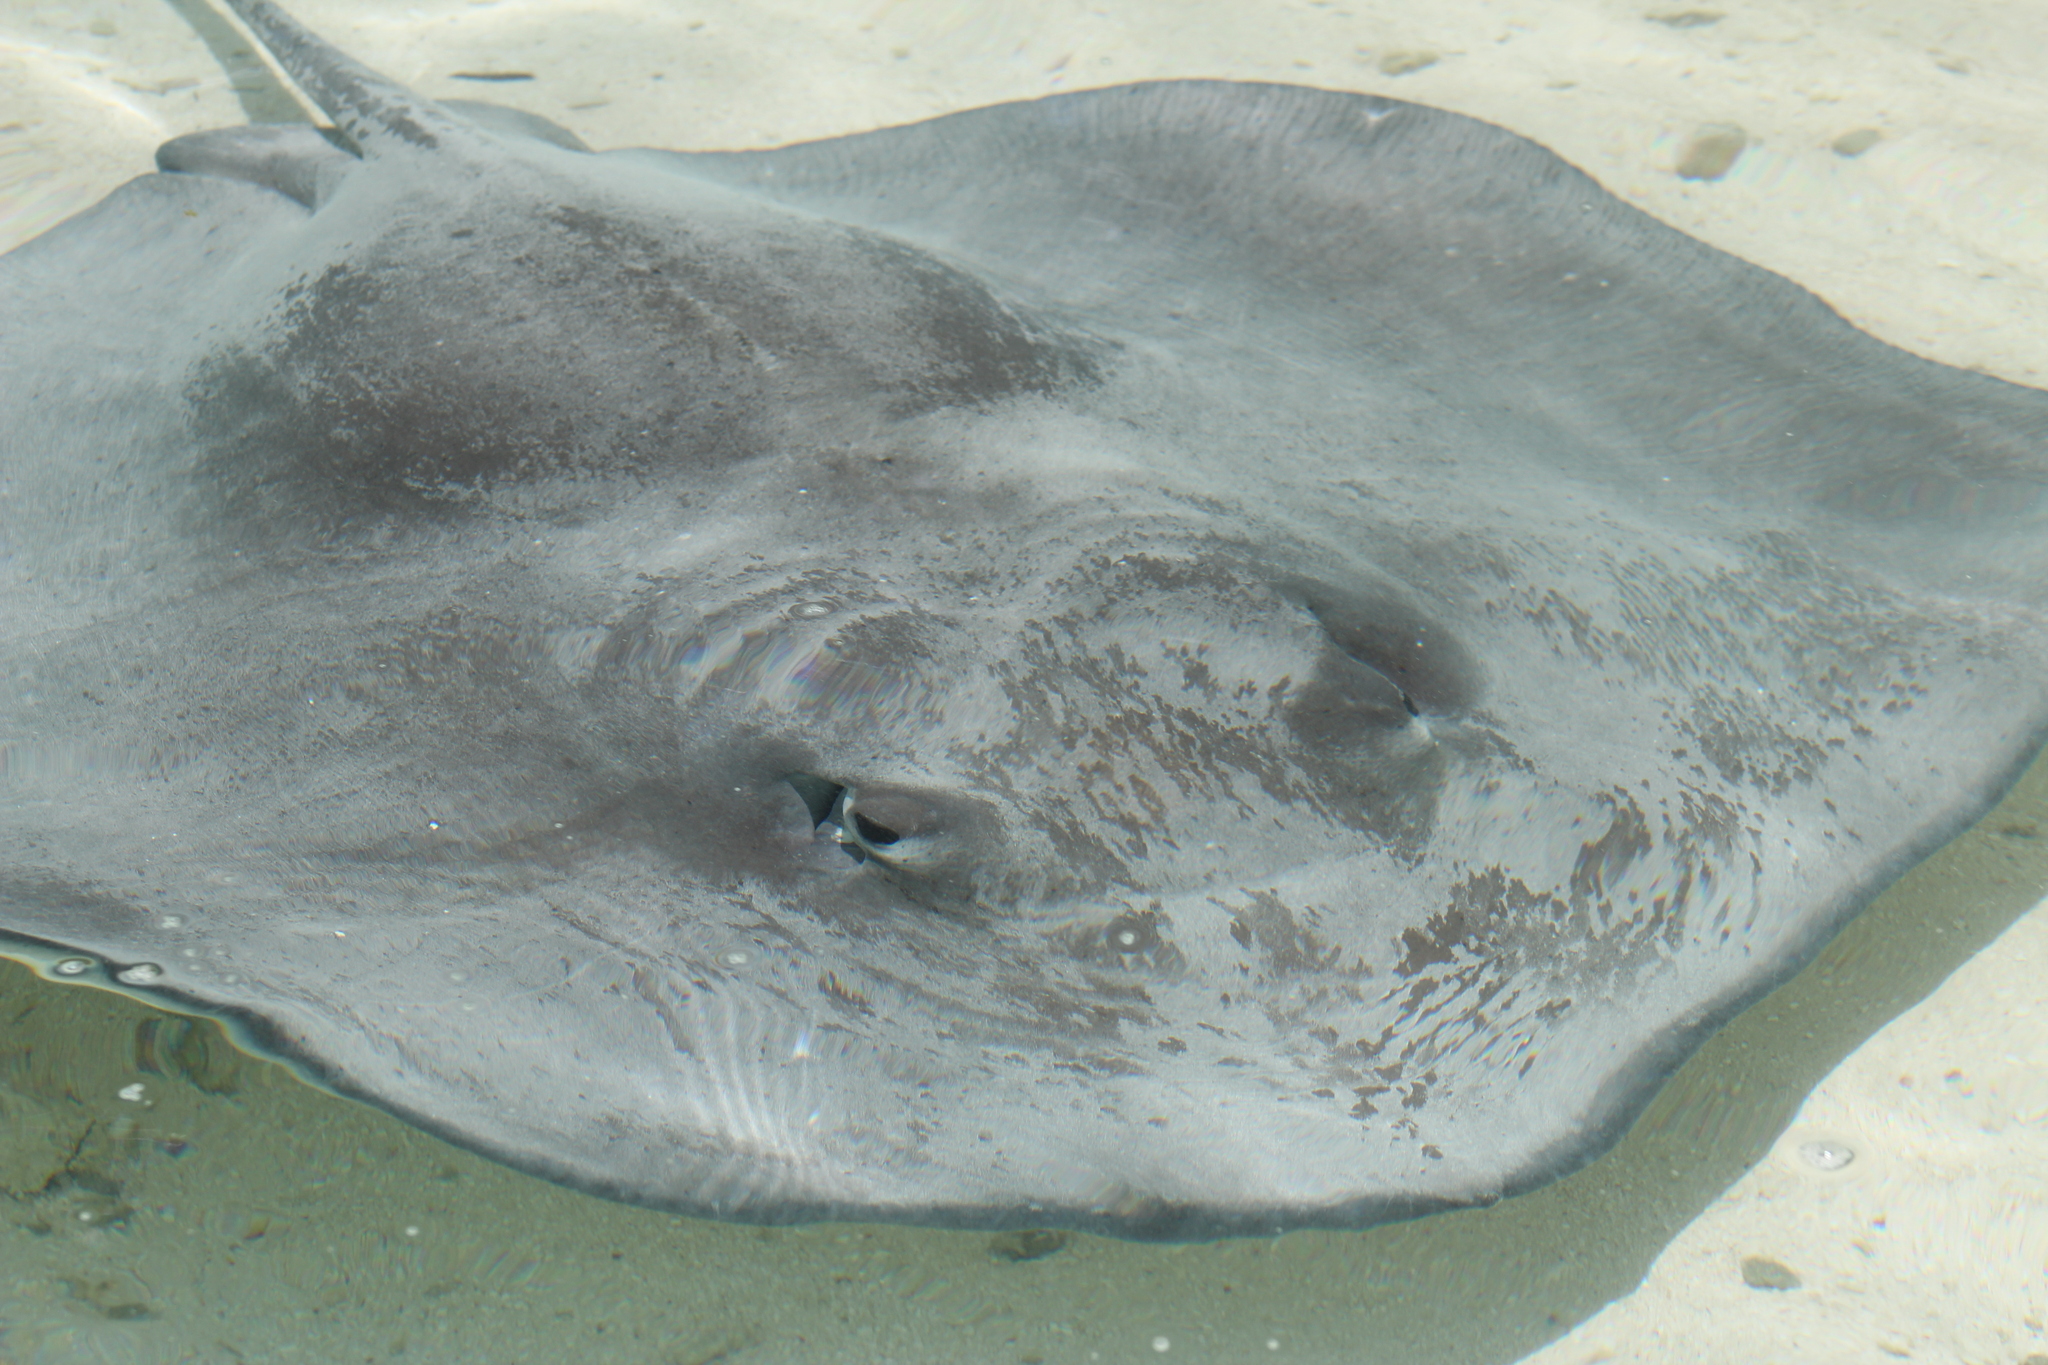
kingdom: Animalia
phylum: Chordata
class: Elasmobranchii
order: Myliobatiformes
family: Dasyatidae
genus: Pateobatis
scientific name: Pateobatis fai
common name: Pink whipray
